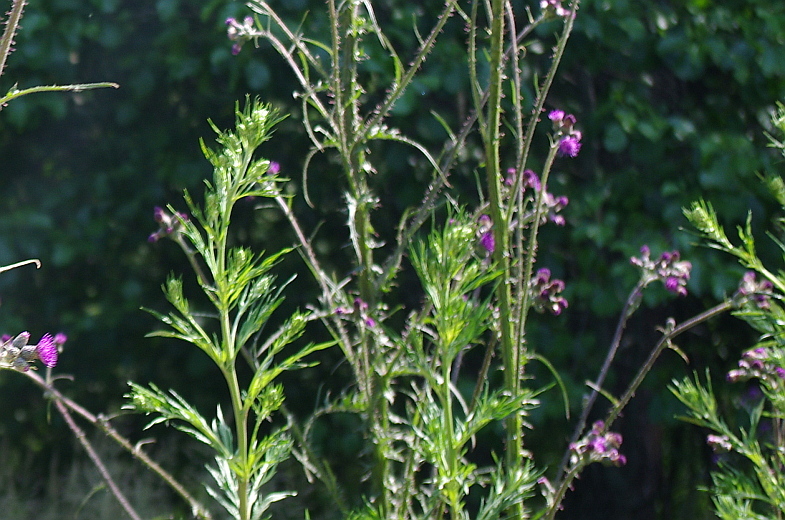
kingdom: Plantae
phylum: Tracheophyta
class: Magnoliopsida
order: Asterales
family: Asteraceae
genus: Artemisia
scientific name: Artemisia vulgaris
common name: Mugwort
